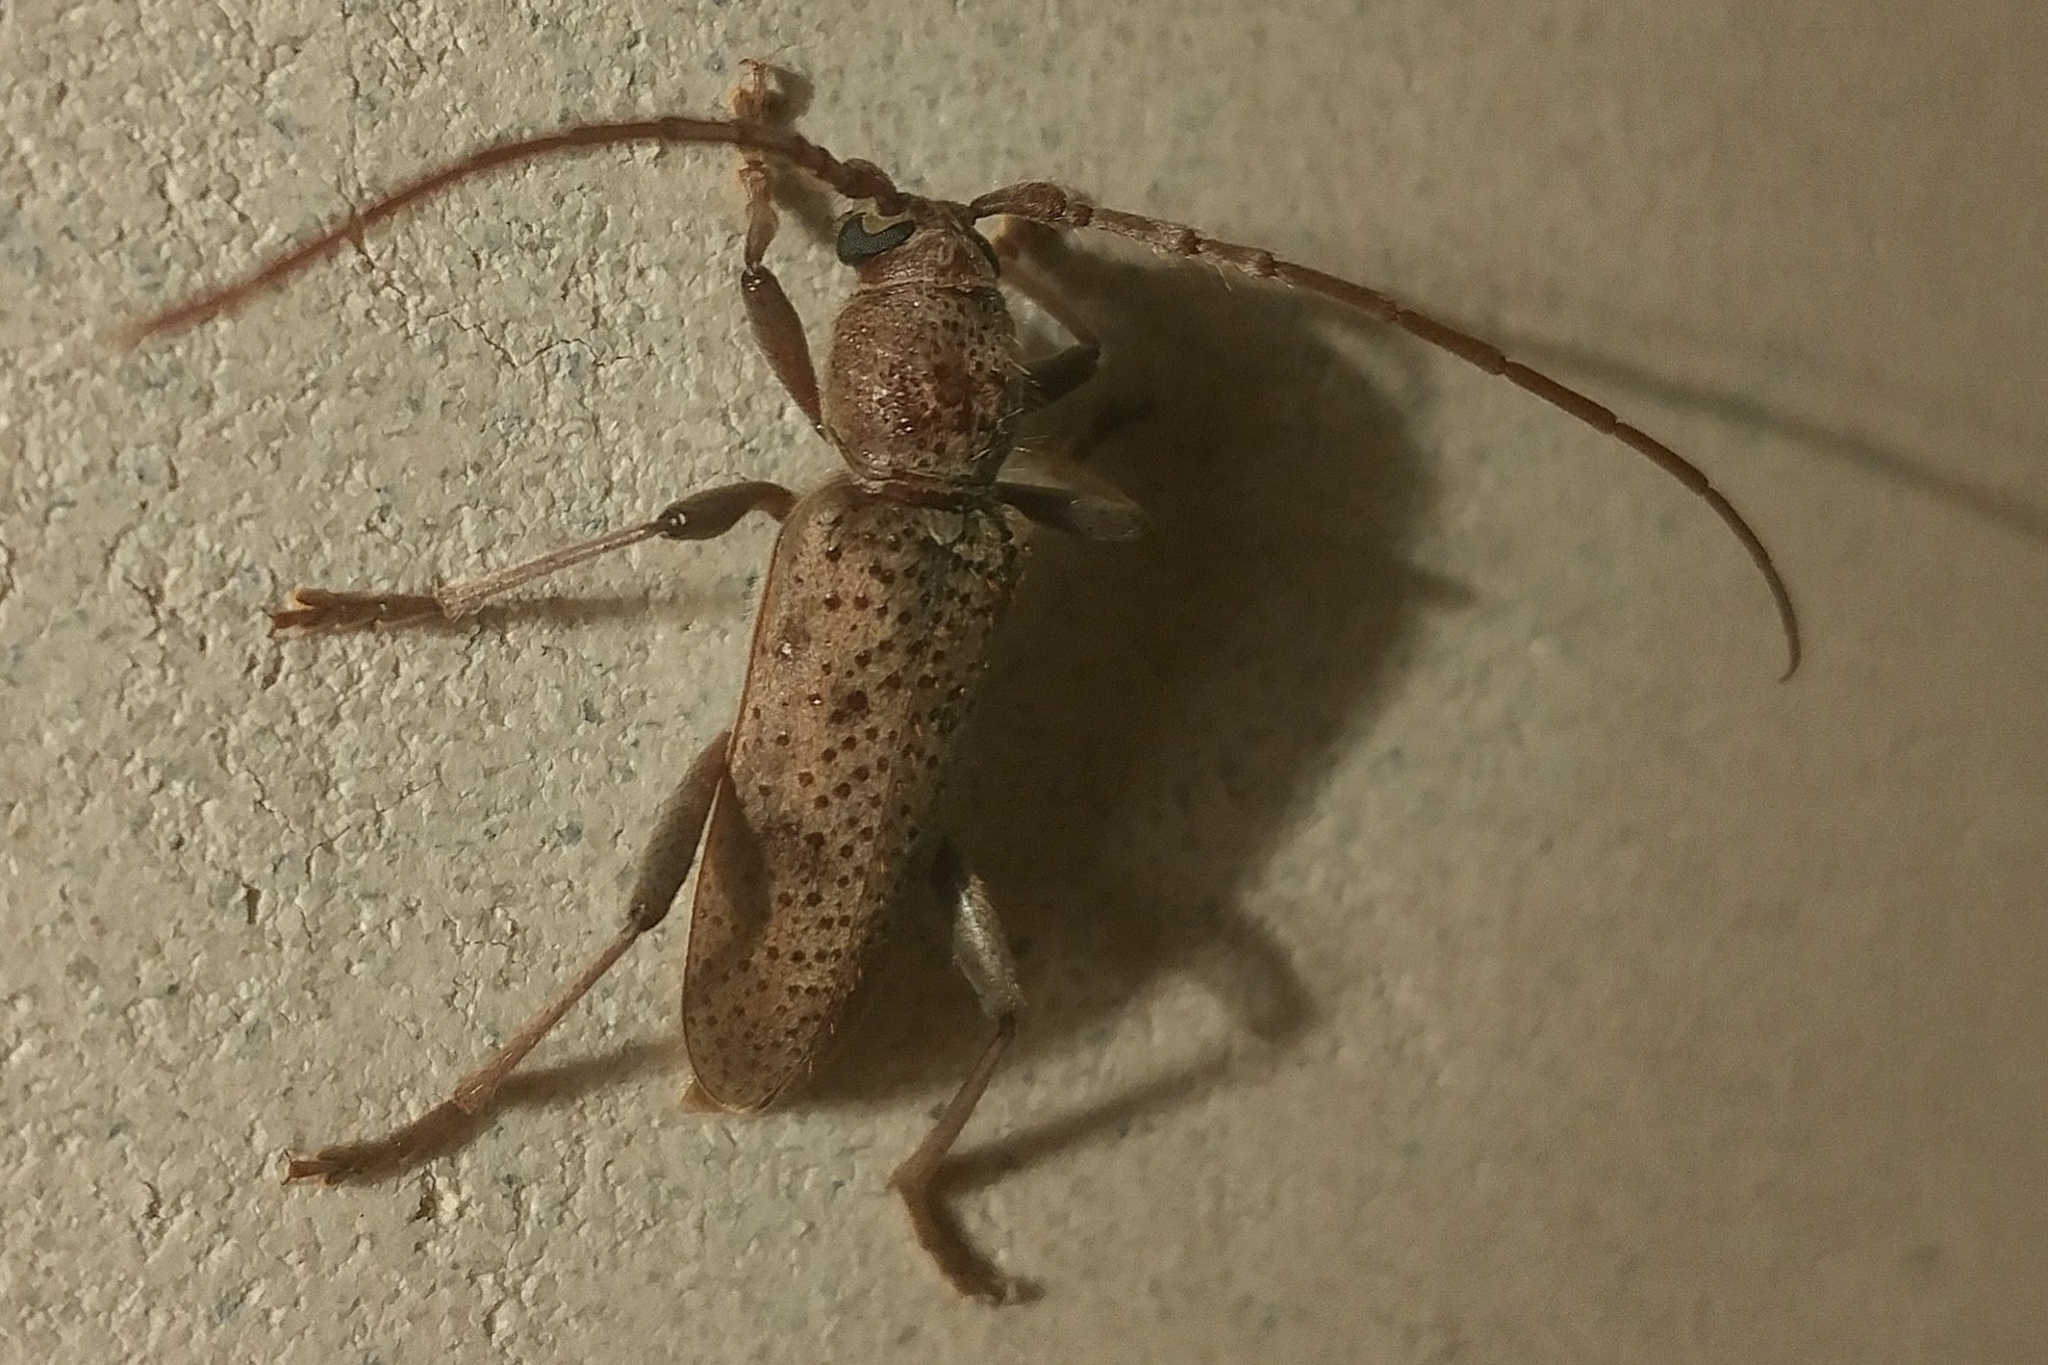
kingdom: Animalia
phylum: Arthropoda
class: Insecta
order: Coleoptera
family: Cerambycidae
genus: Brothylus
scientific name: Brothylus gemmulatus
